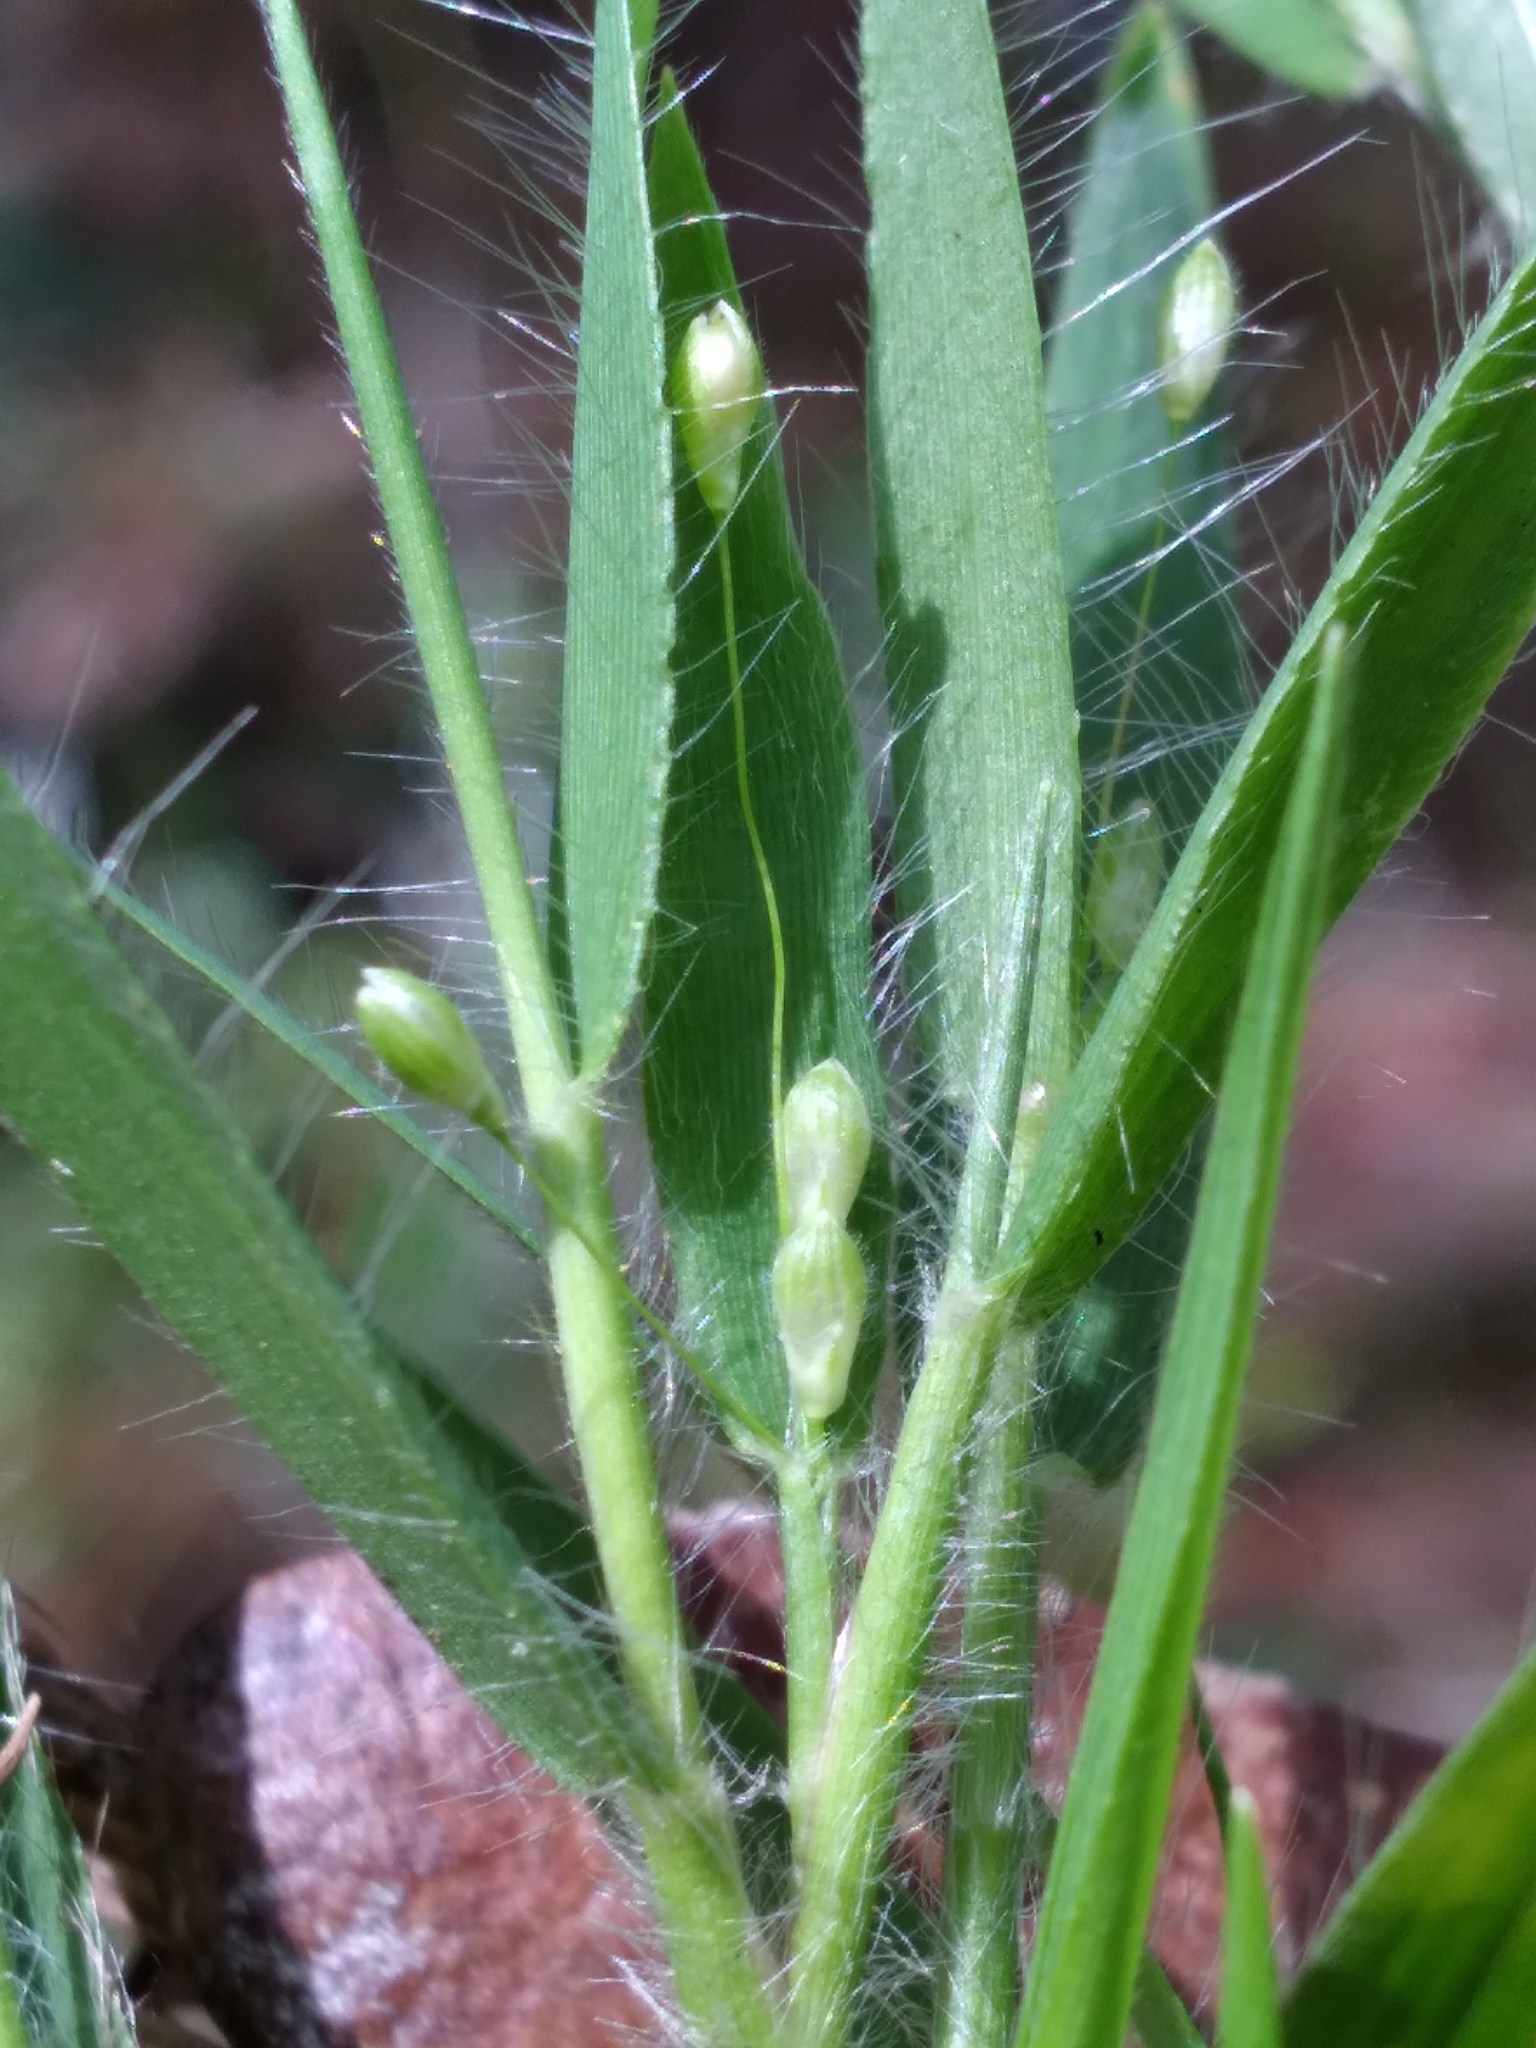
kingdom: Plantae
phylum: Tracheophyta
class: Liliopsida
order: Poales
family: Poaceae
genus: Dichanthelium
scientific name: Dichanthelium ovale
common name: Stiff-leaved panicgrass
